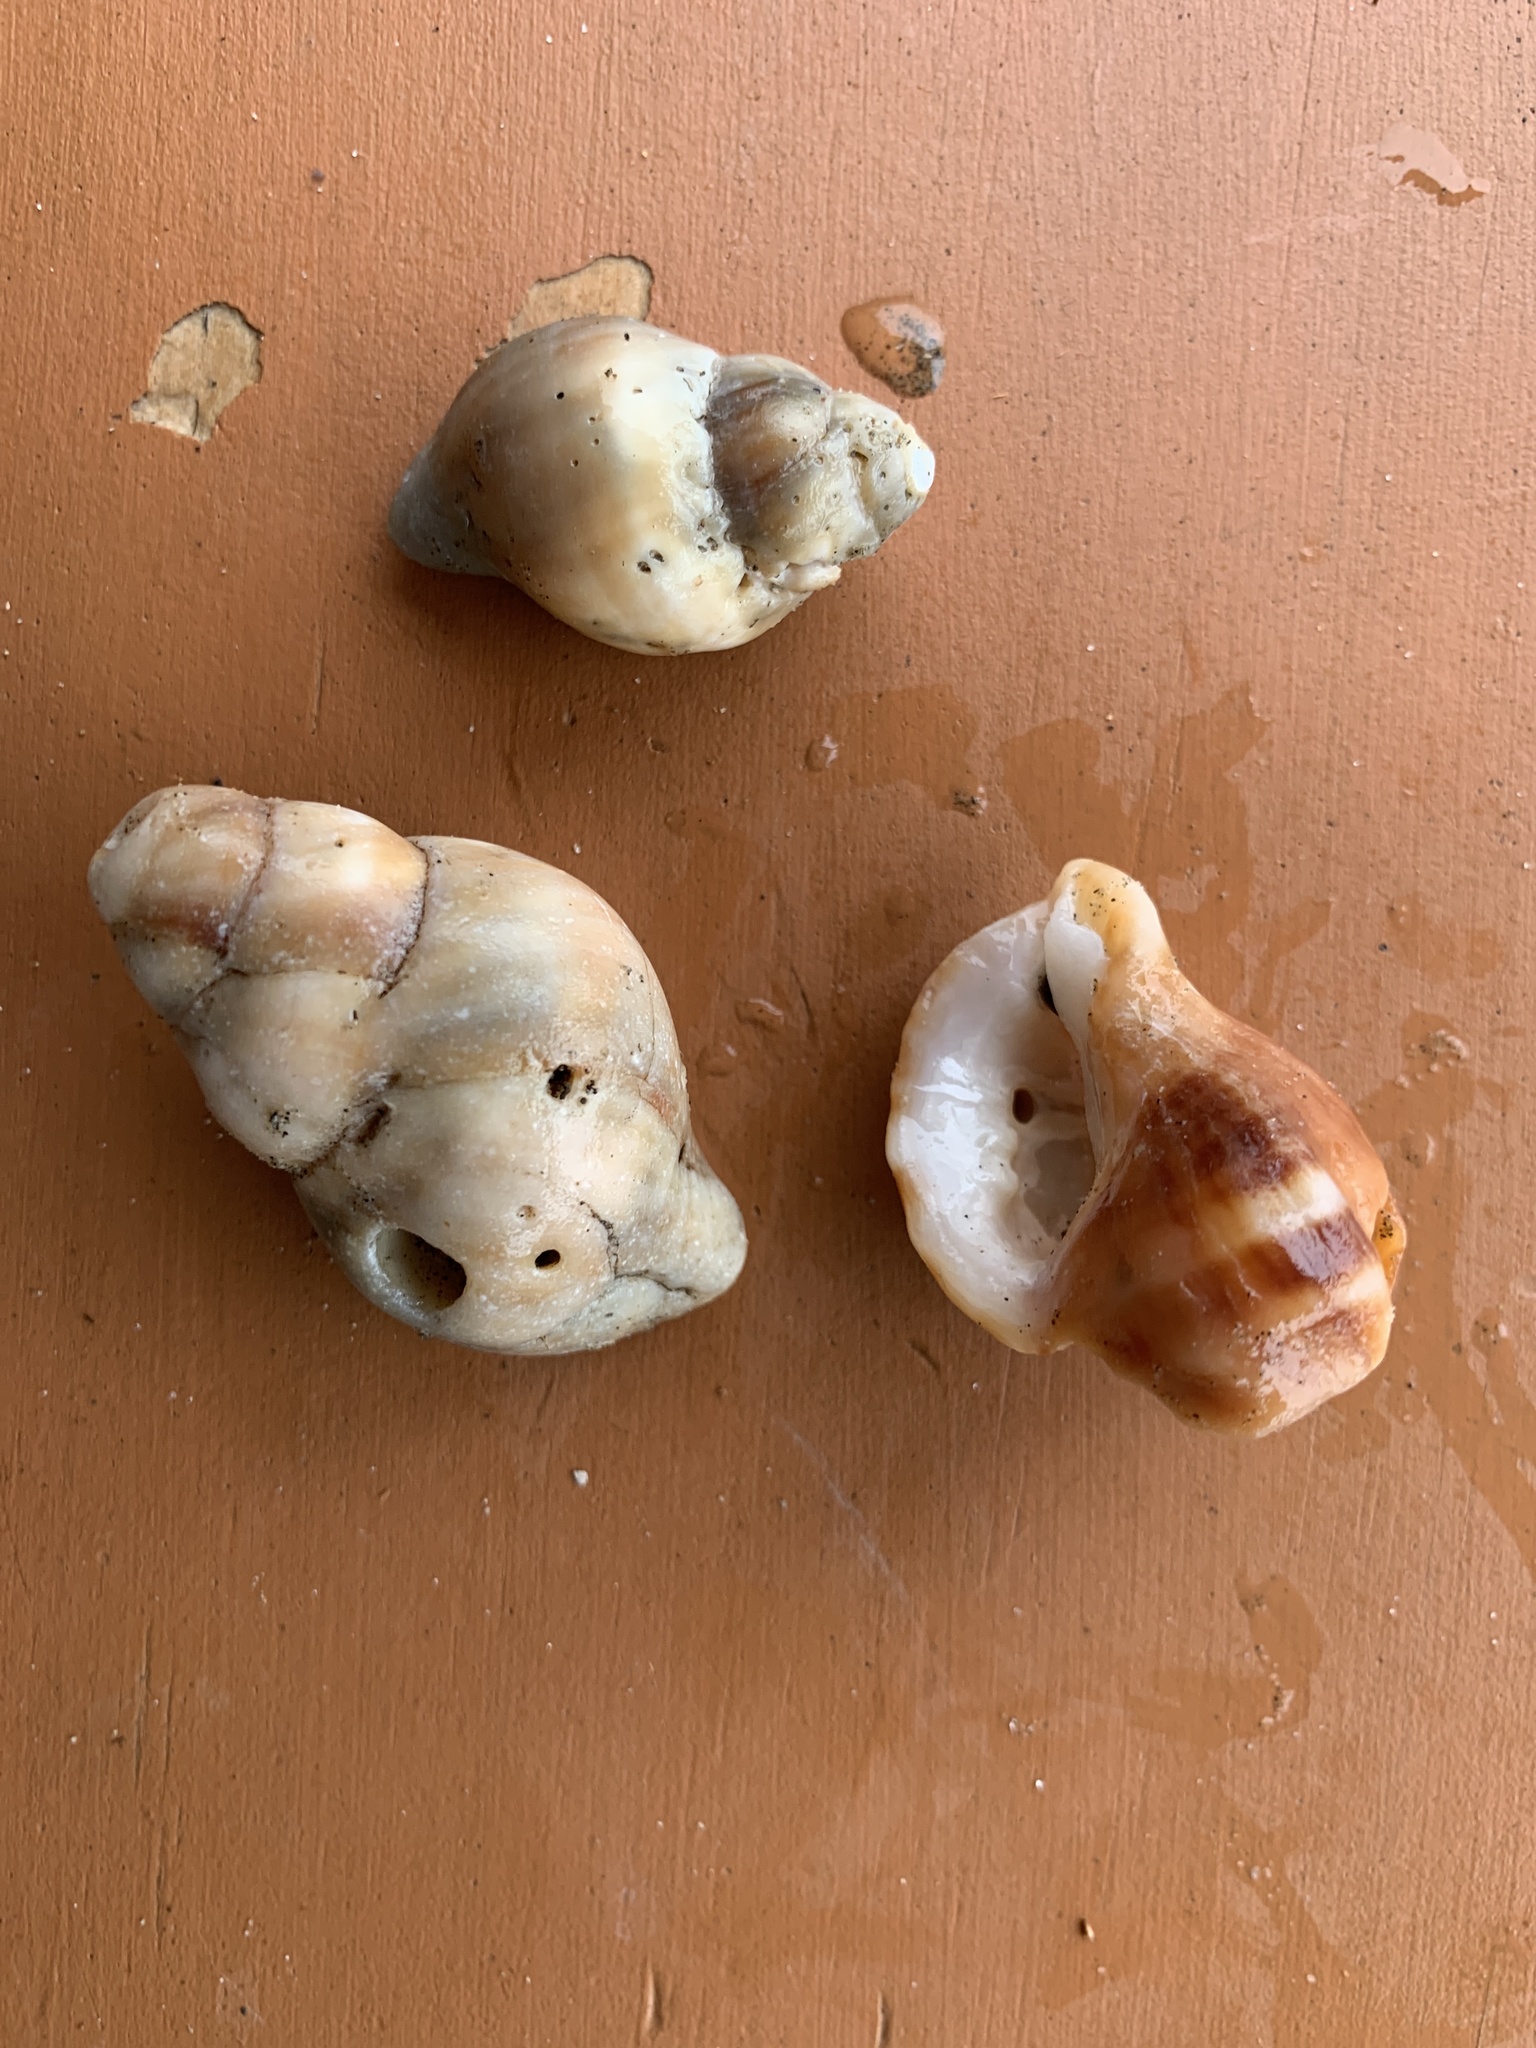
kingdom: Animalia
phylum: Mollusca
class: Gastropoda
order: Neogastropoda
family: Muricidae
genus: Nucella
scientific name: Nucella lamellosa
